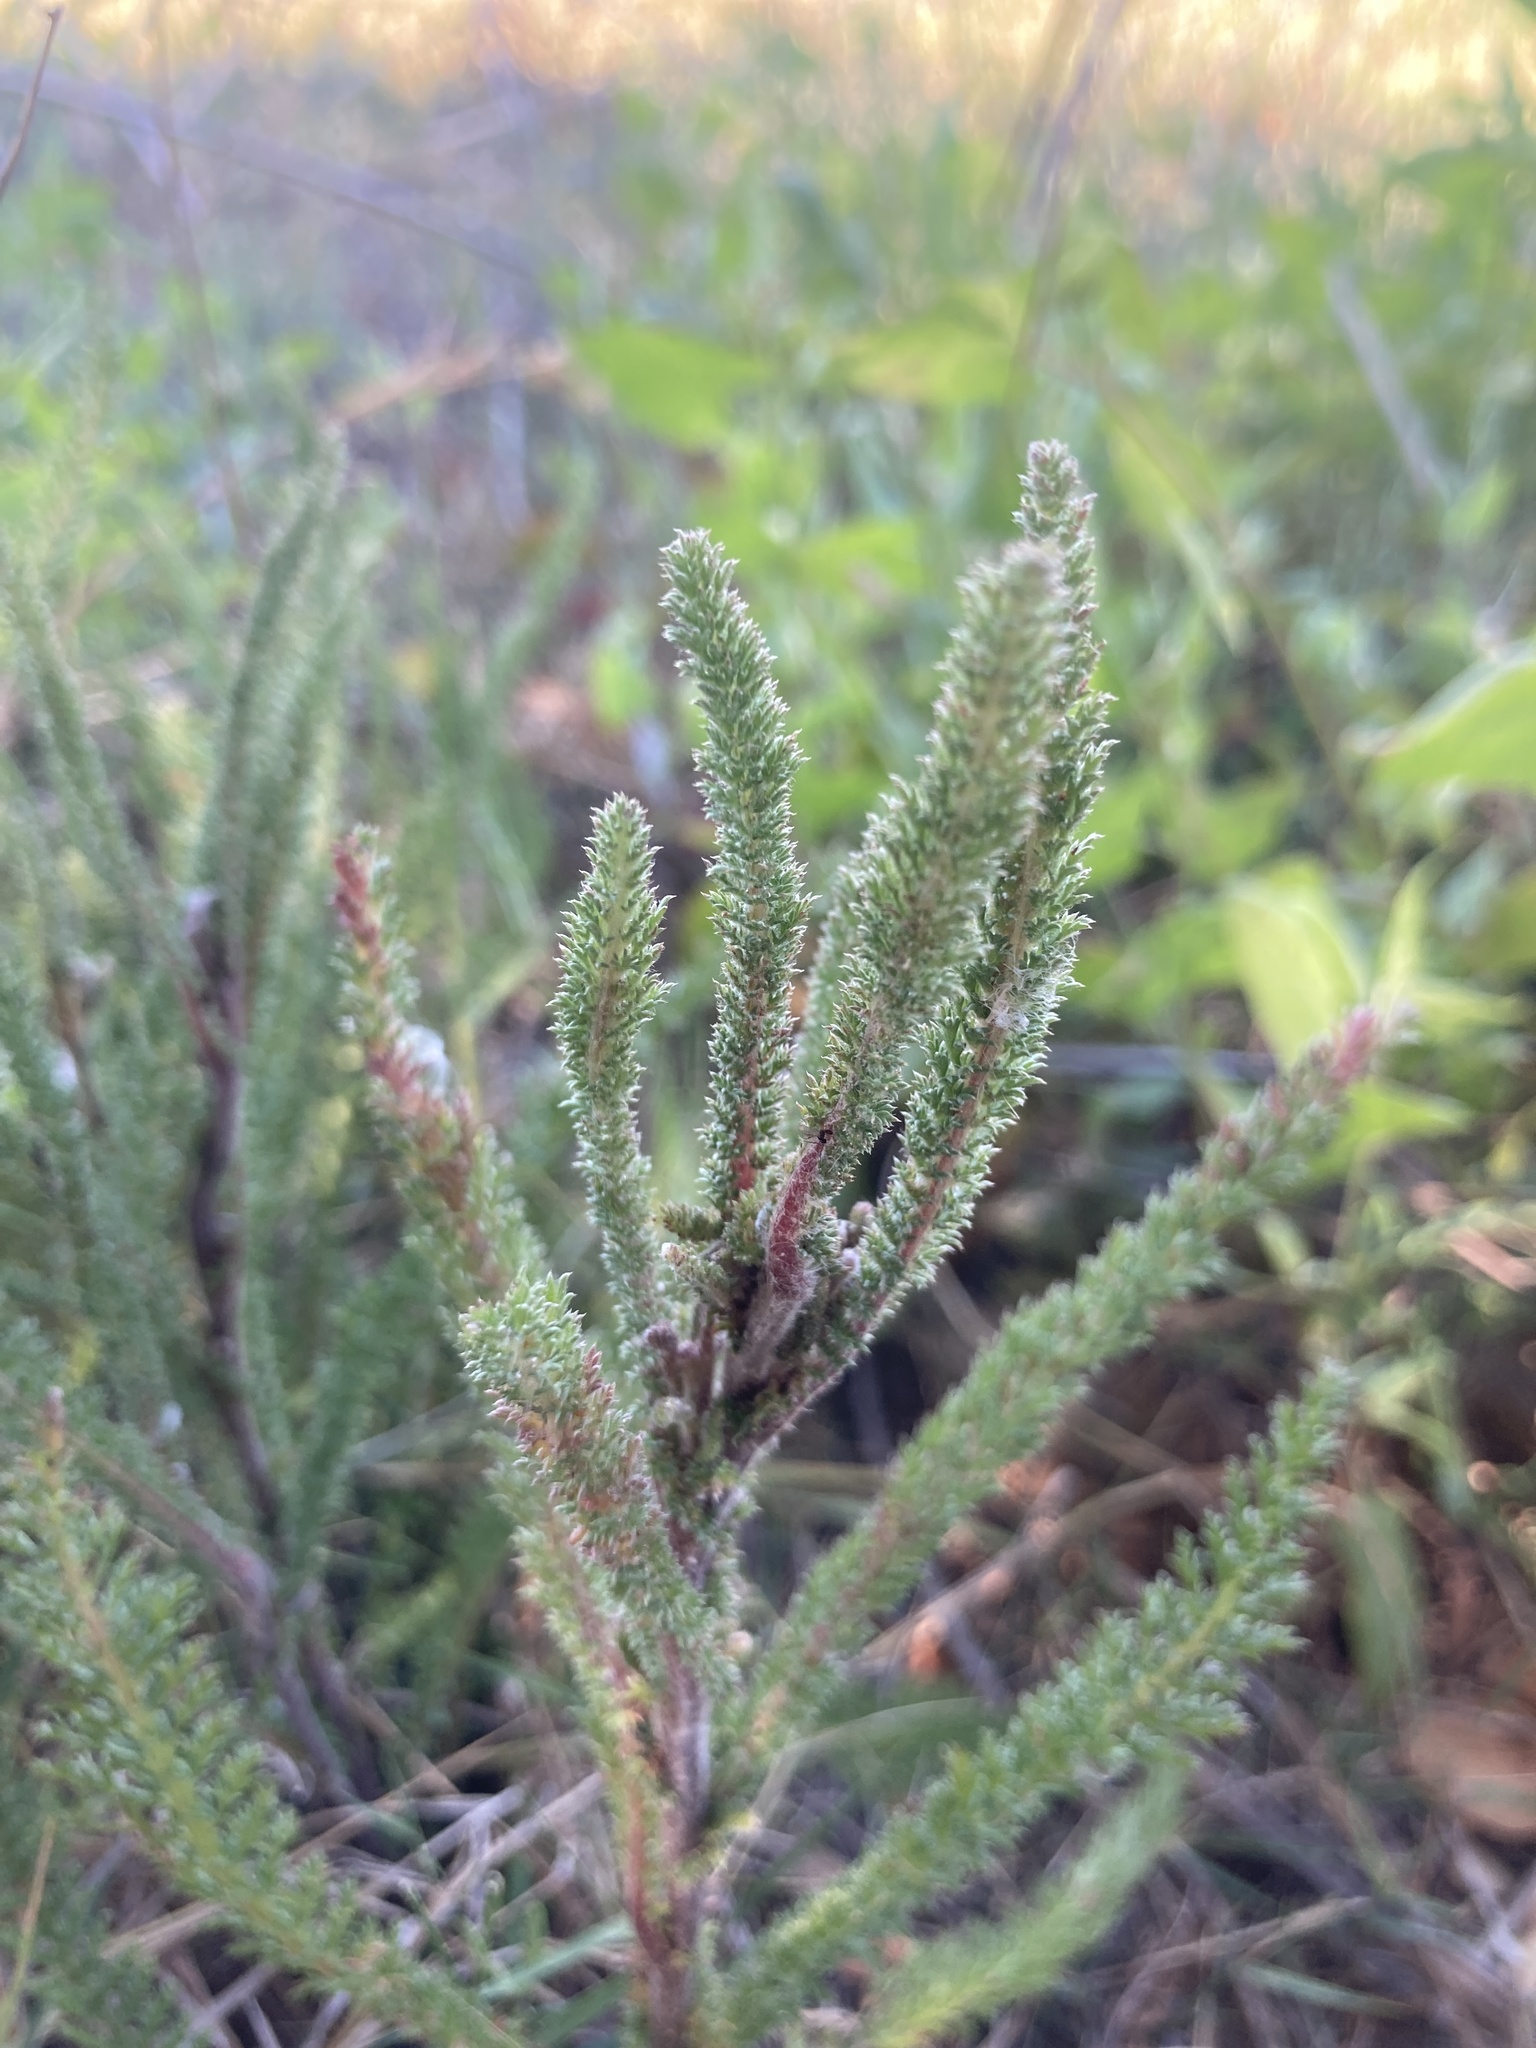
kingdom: Plantae
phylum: Tracheophyta
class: Magnoliopsida
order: Asterales
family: Asteraceae
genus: Achillea
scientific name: Achillea millefolium
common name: Yarrow
